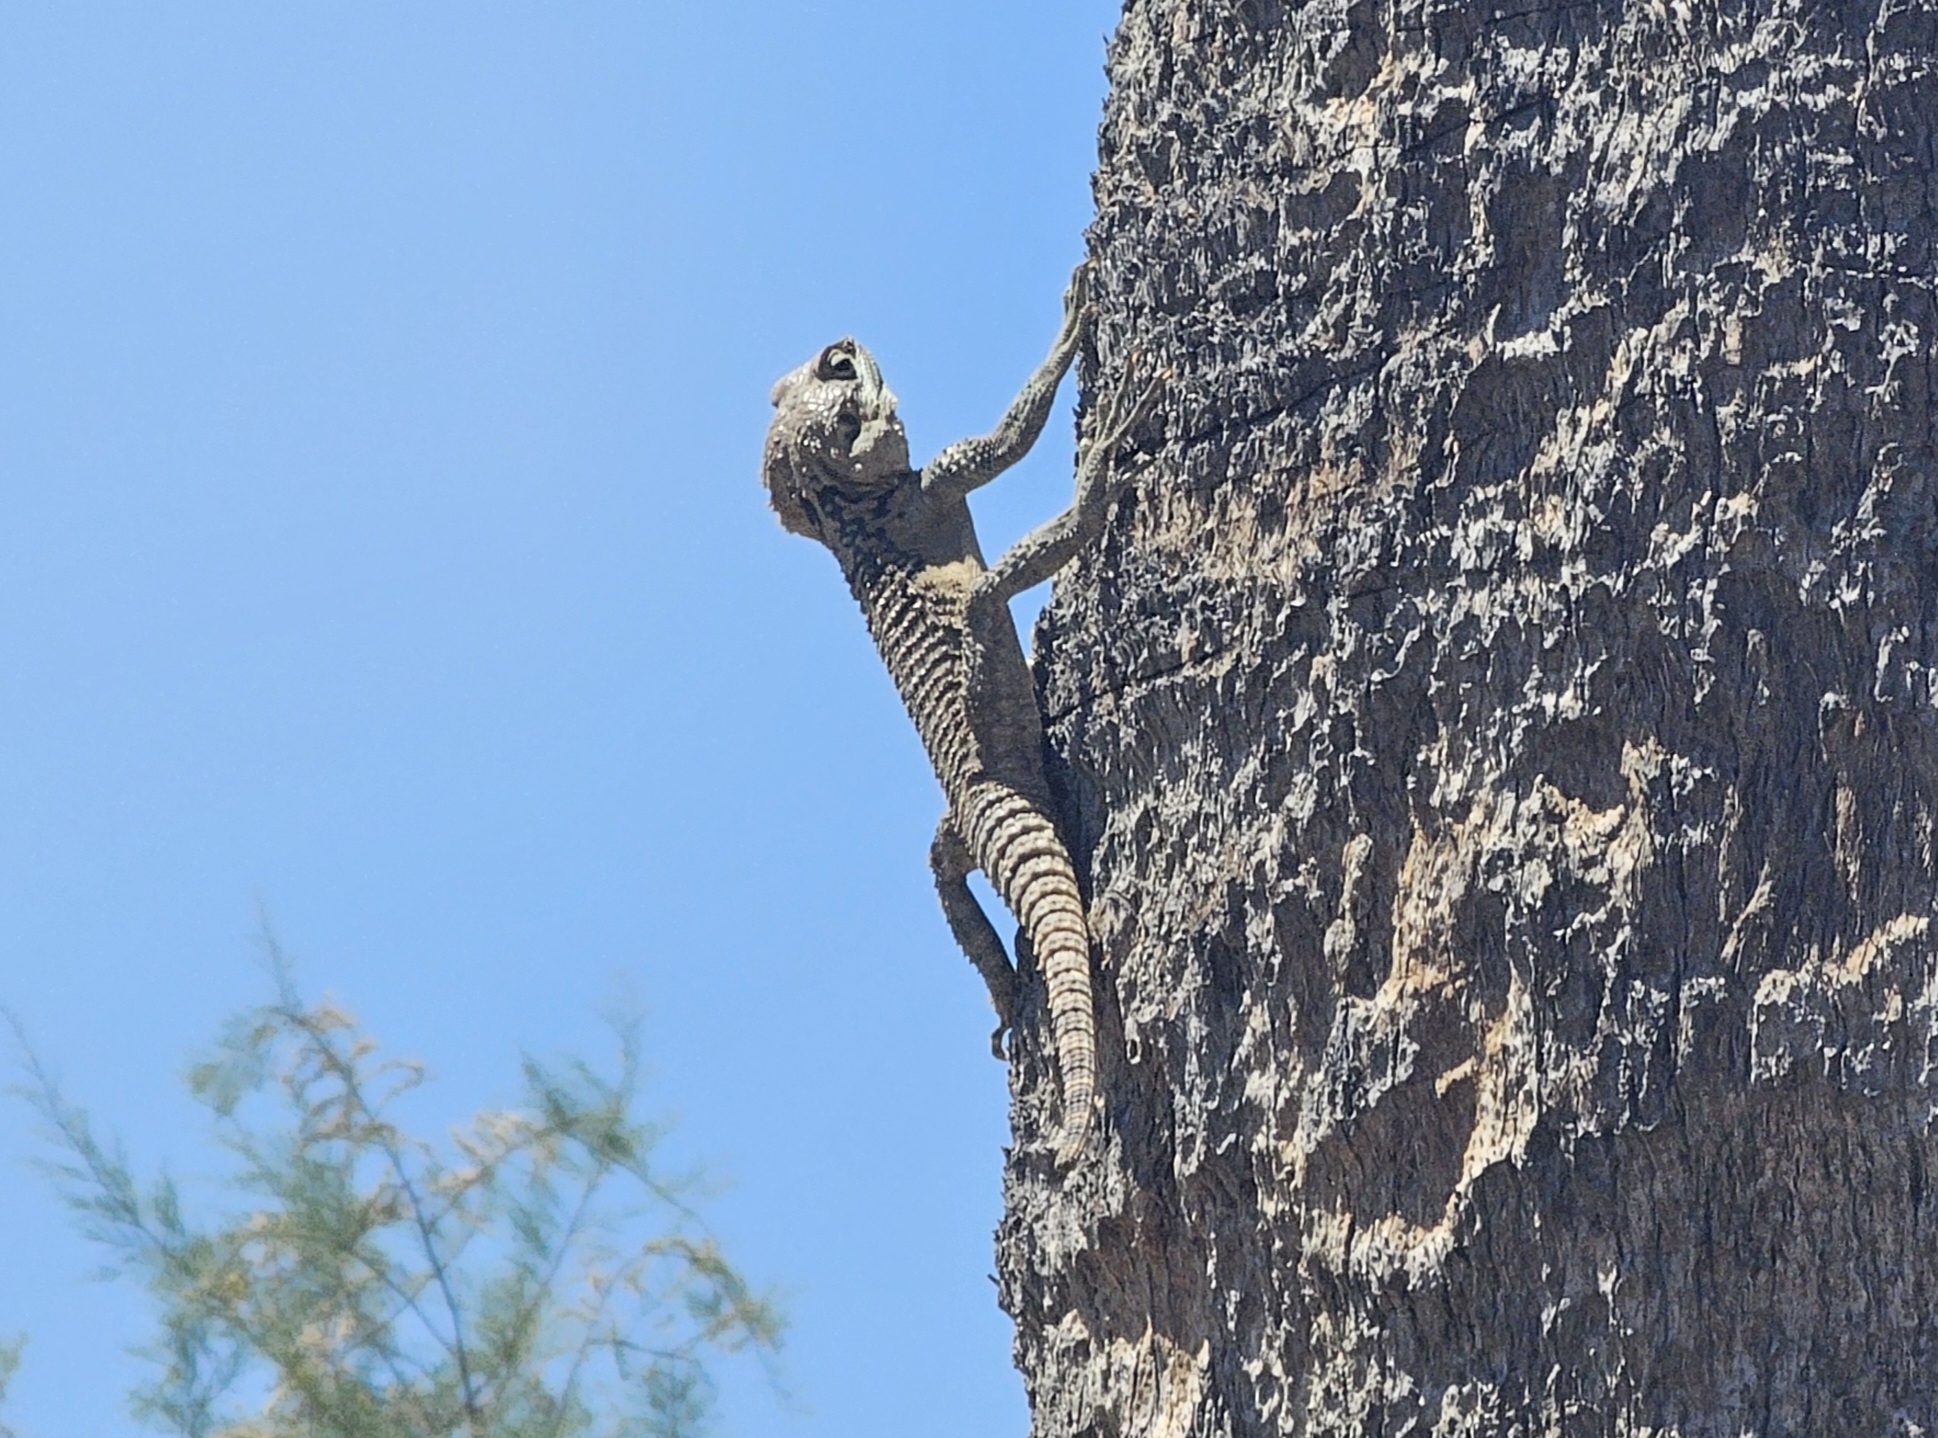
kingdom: Animalia
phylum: Chordata
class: Squamata
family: Agamidae
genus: Laudakia
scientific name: Laudakia
